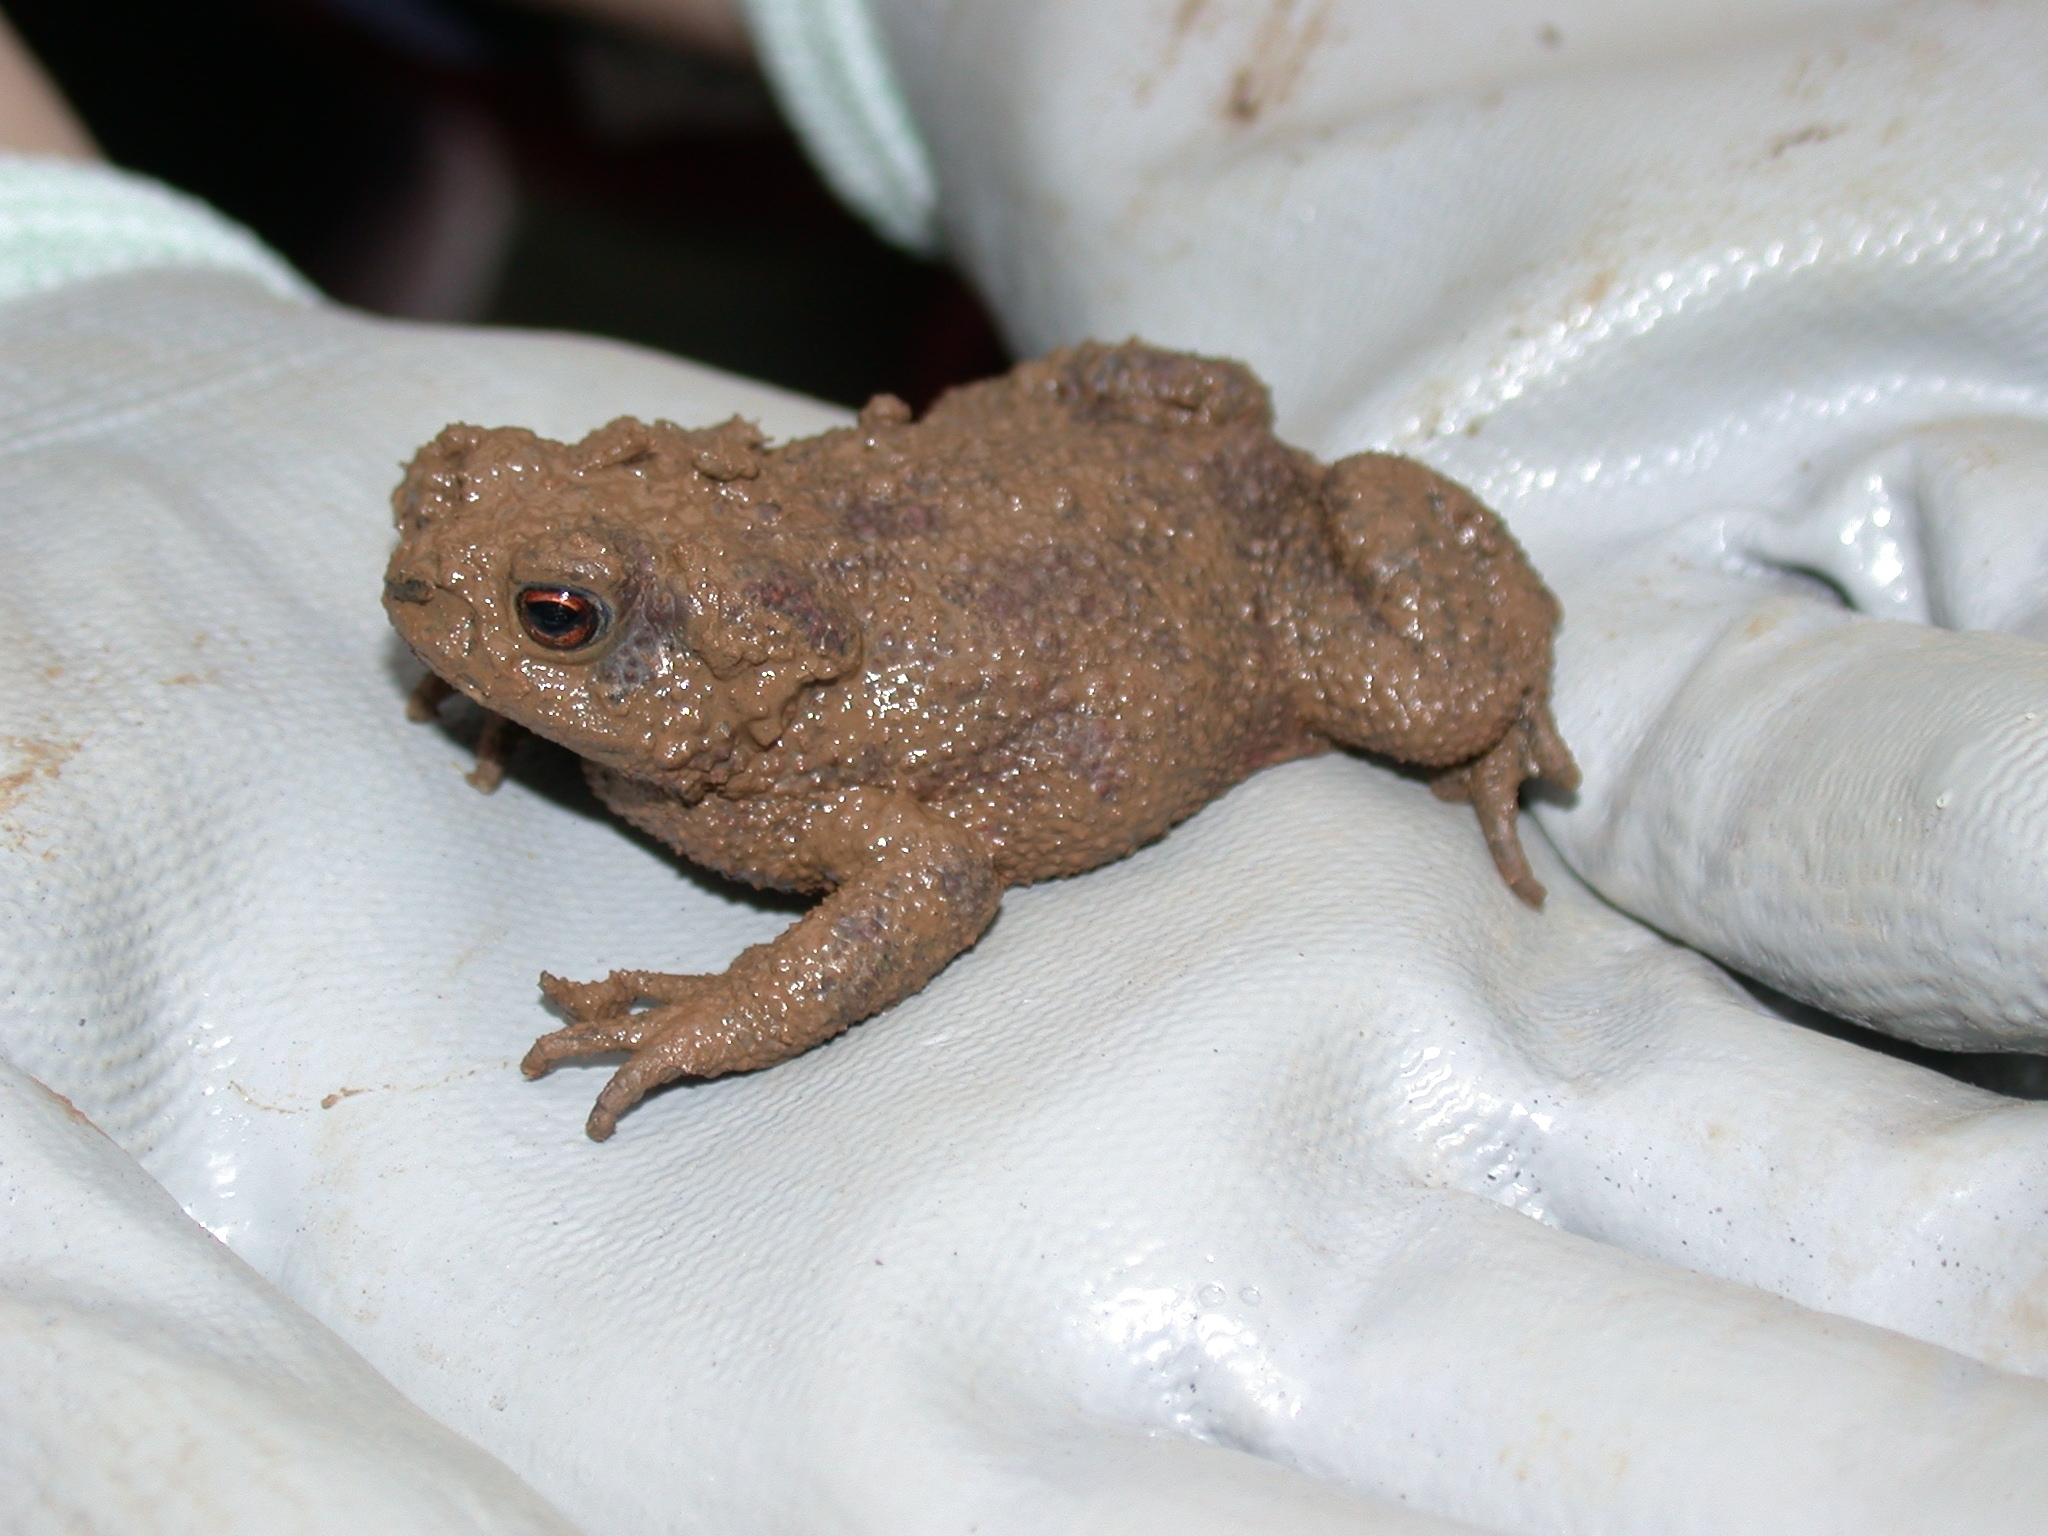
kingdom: Animalia
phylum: Chordata
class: Amphibia
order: Anura
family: Bufonidae
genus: Bufo
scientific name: Bufo bufo
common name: Common toad
